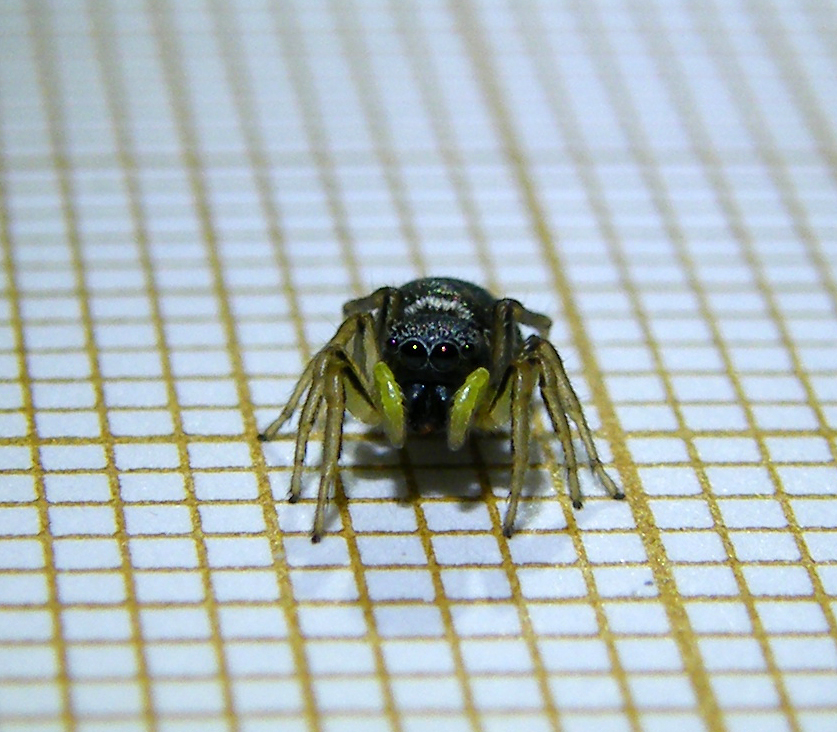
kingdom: Animalia
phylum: Arthropoda
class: Arachnida
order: Araneae
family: Salticidae
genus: Heliophanus
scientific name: Heliophanus cupreus
